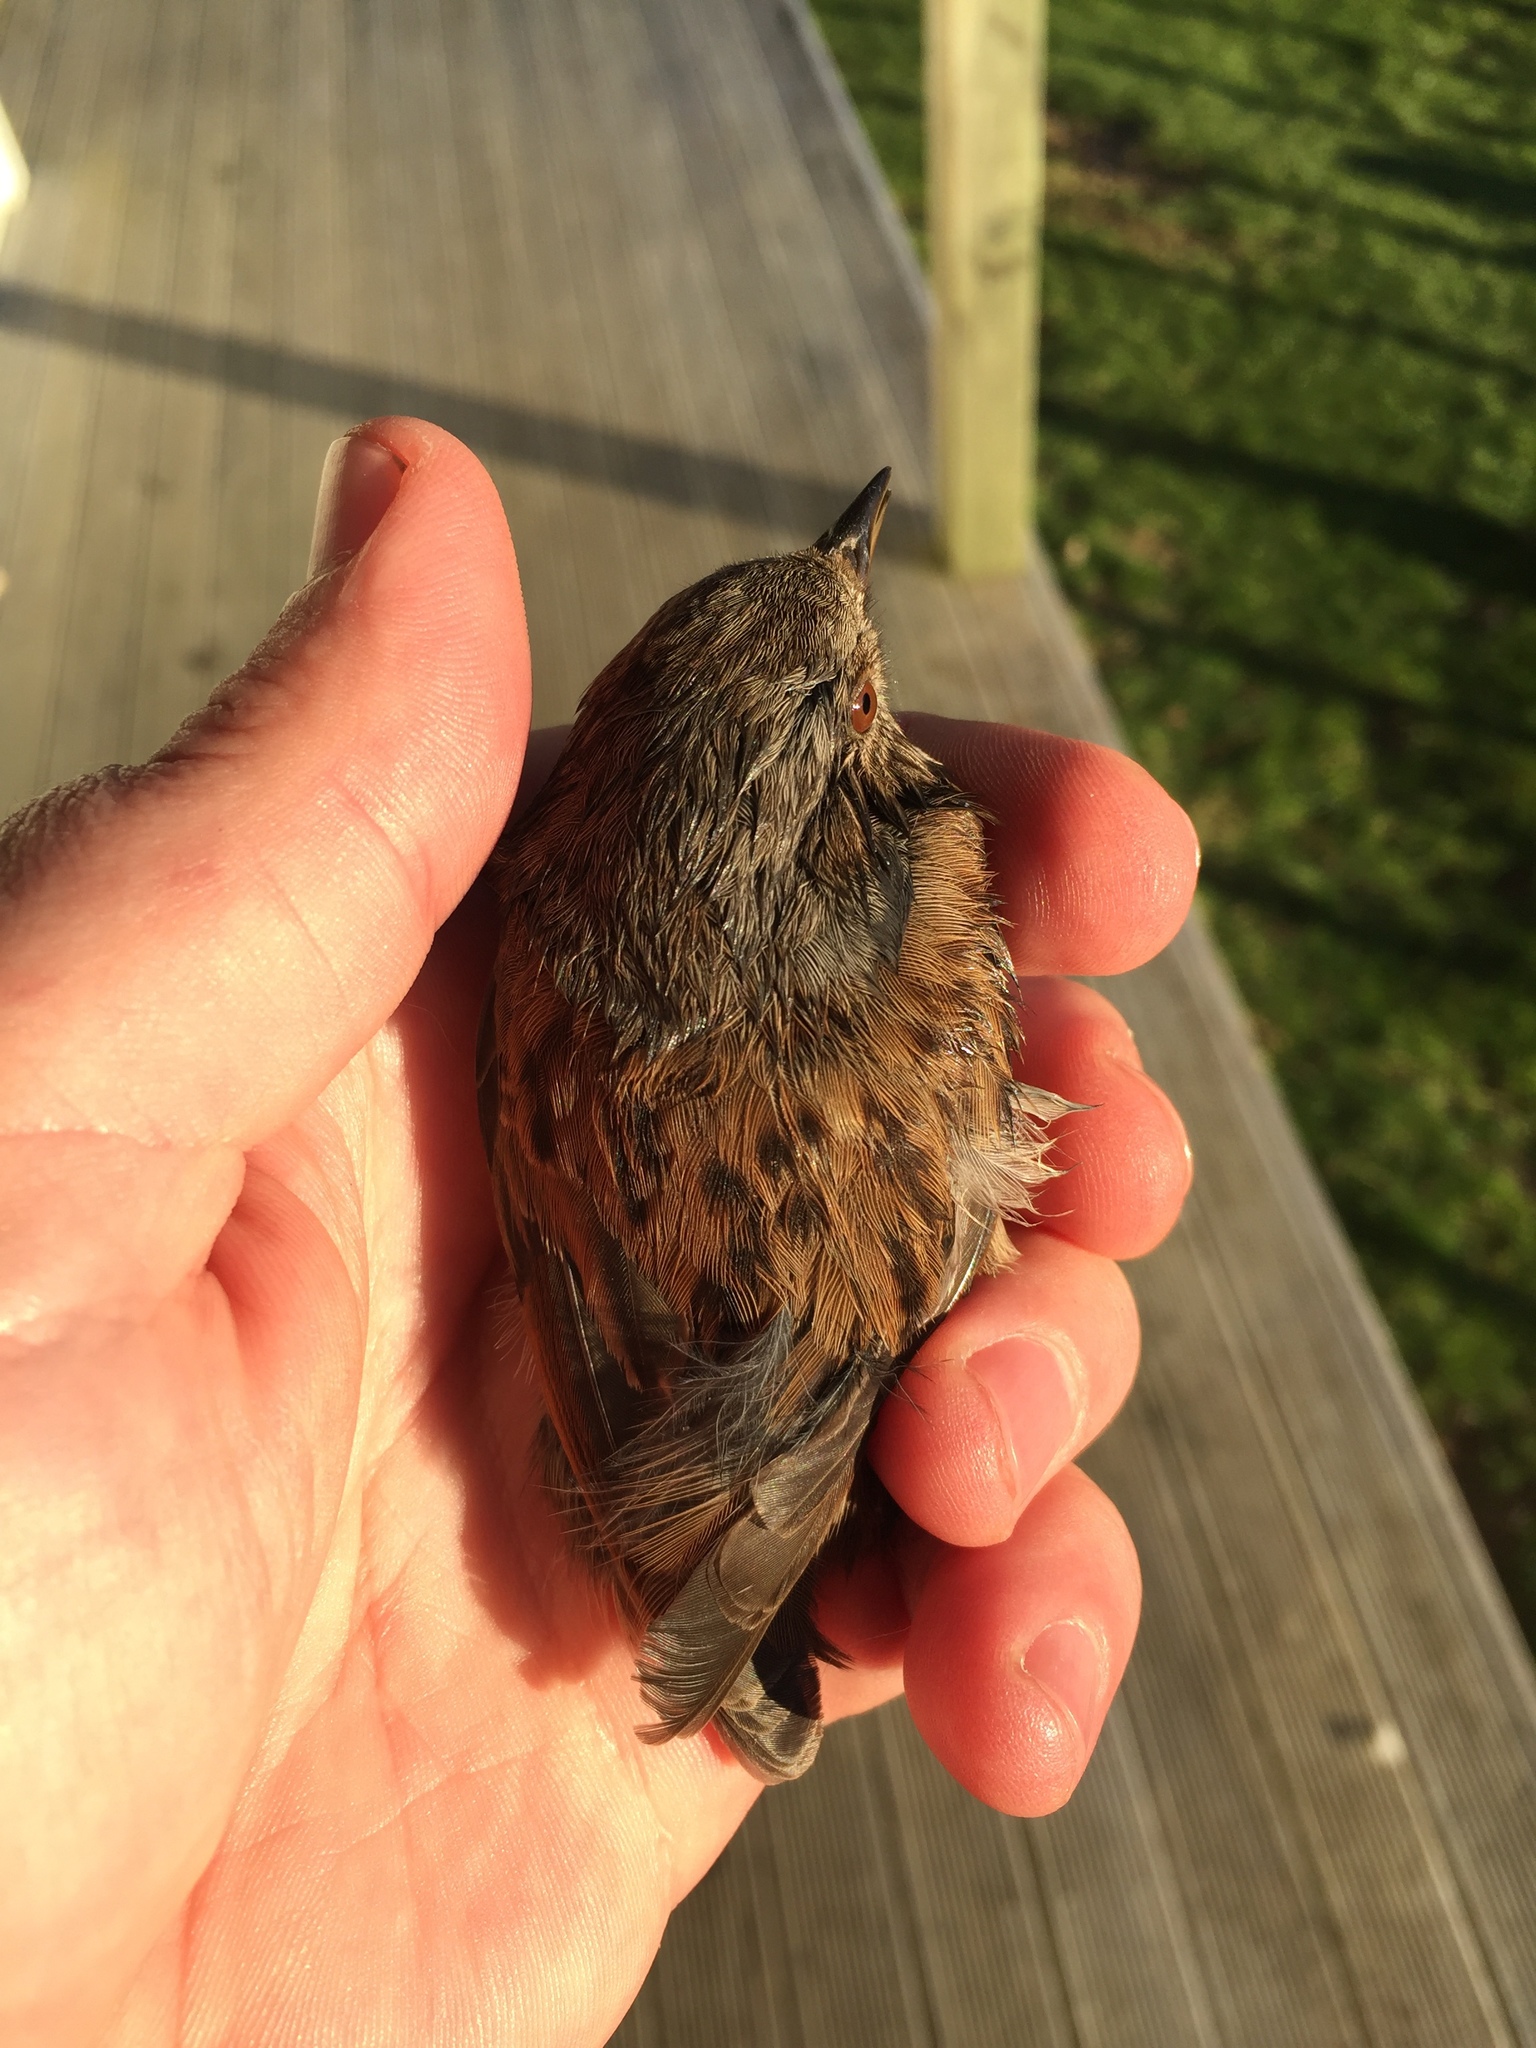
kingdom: Animalia
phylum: Chordata
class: Aves
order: Passeriformes
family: Prunellidae
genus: Prunella
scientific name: Prunella modularis
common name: Dunnock
